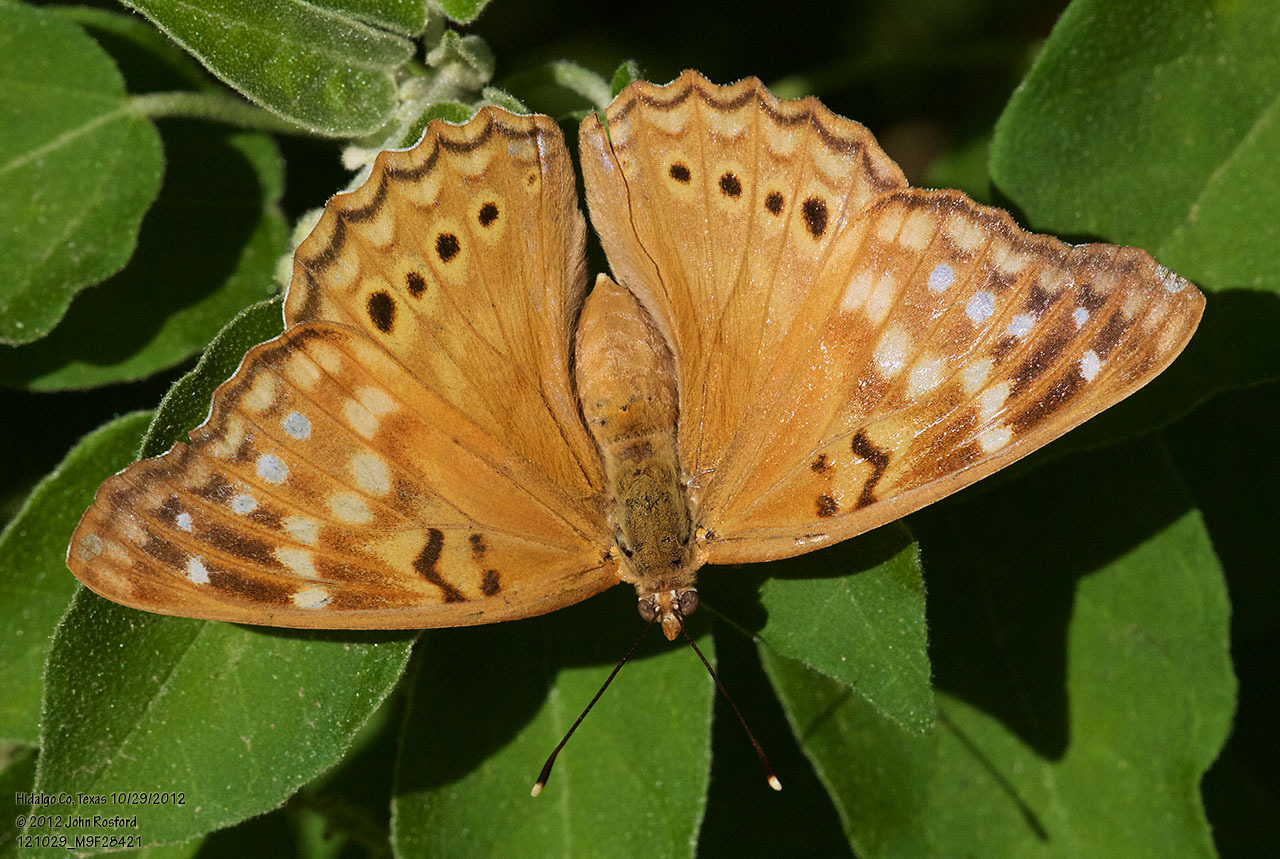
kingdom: Animalia
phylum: Arthropoda
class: Insecta
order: Lepidoptera
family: Nymphalidae
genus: Asterocampa
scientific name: Asterocampa clyton
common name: Tawny emperor
